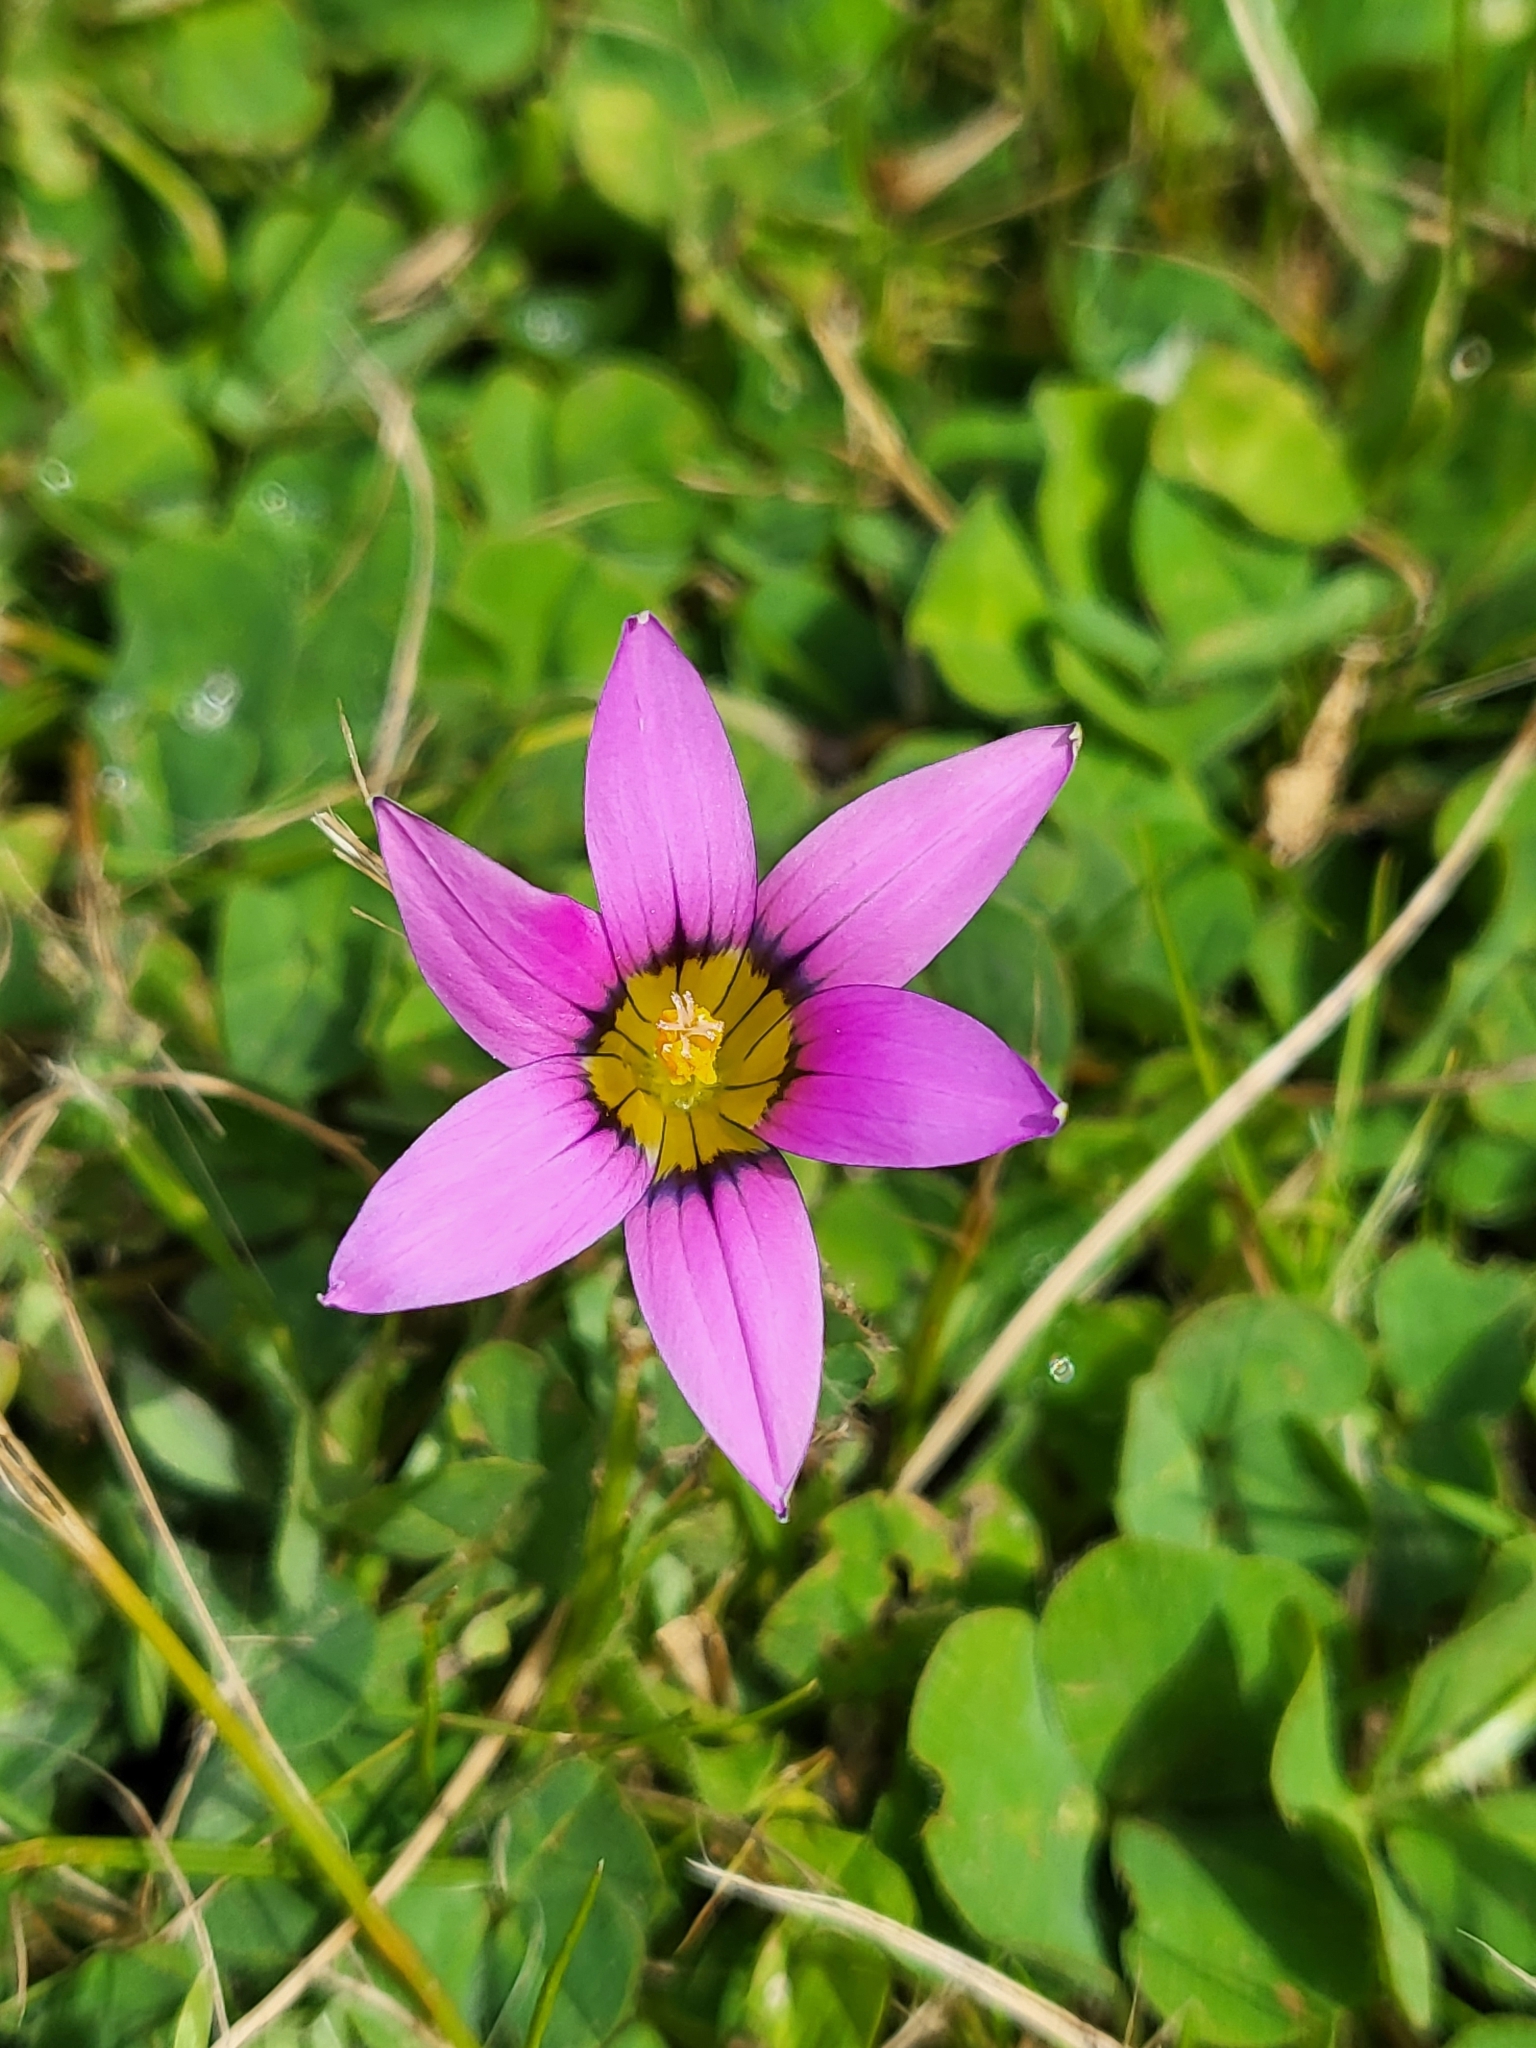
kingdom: Plantae
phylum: Tracheophyta
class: Liliopsida
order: Asparagales
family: Iridaceae
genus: Romulea
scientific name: Romulea rosea
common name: Oniongrass
